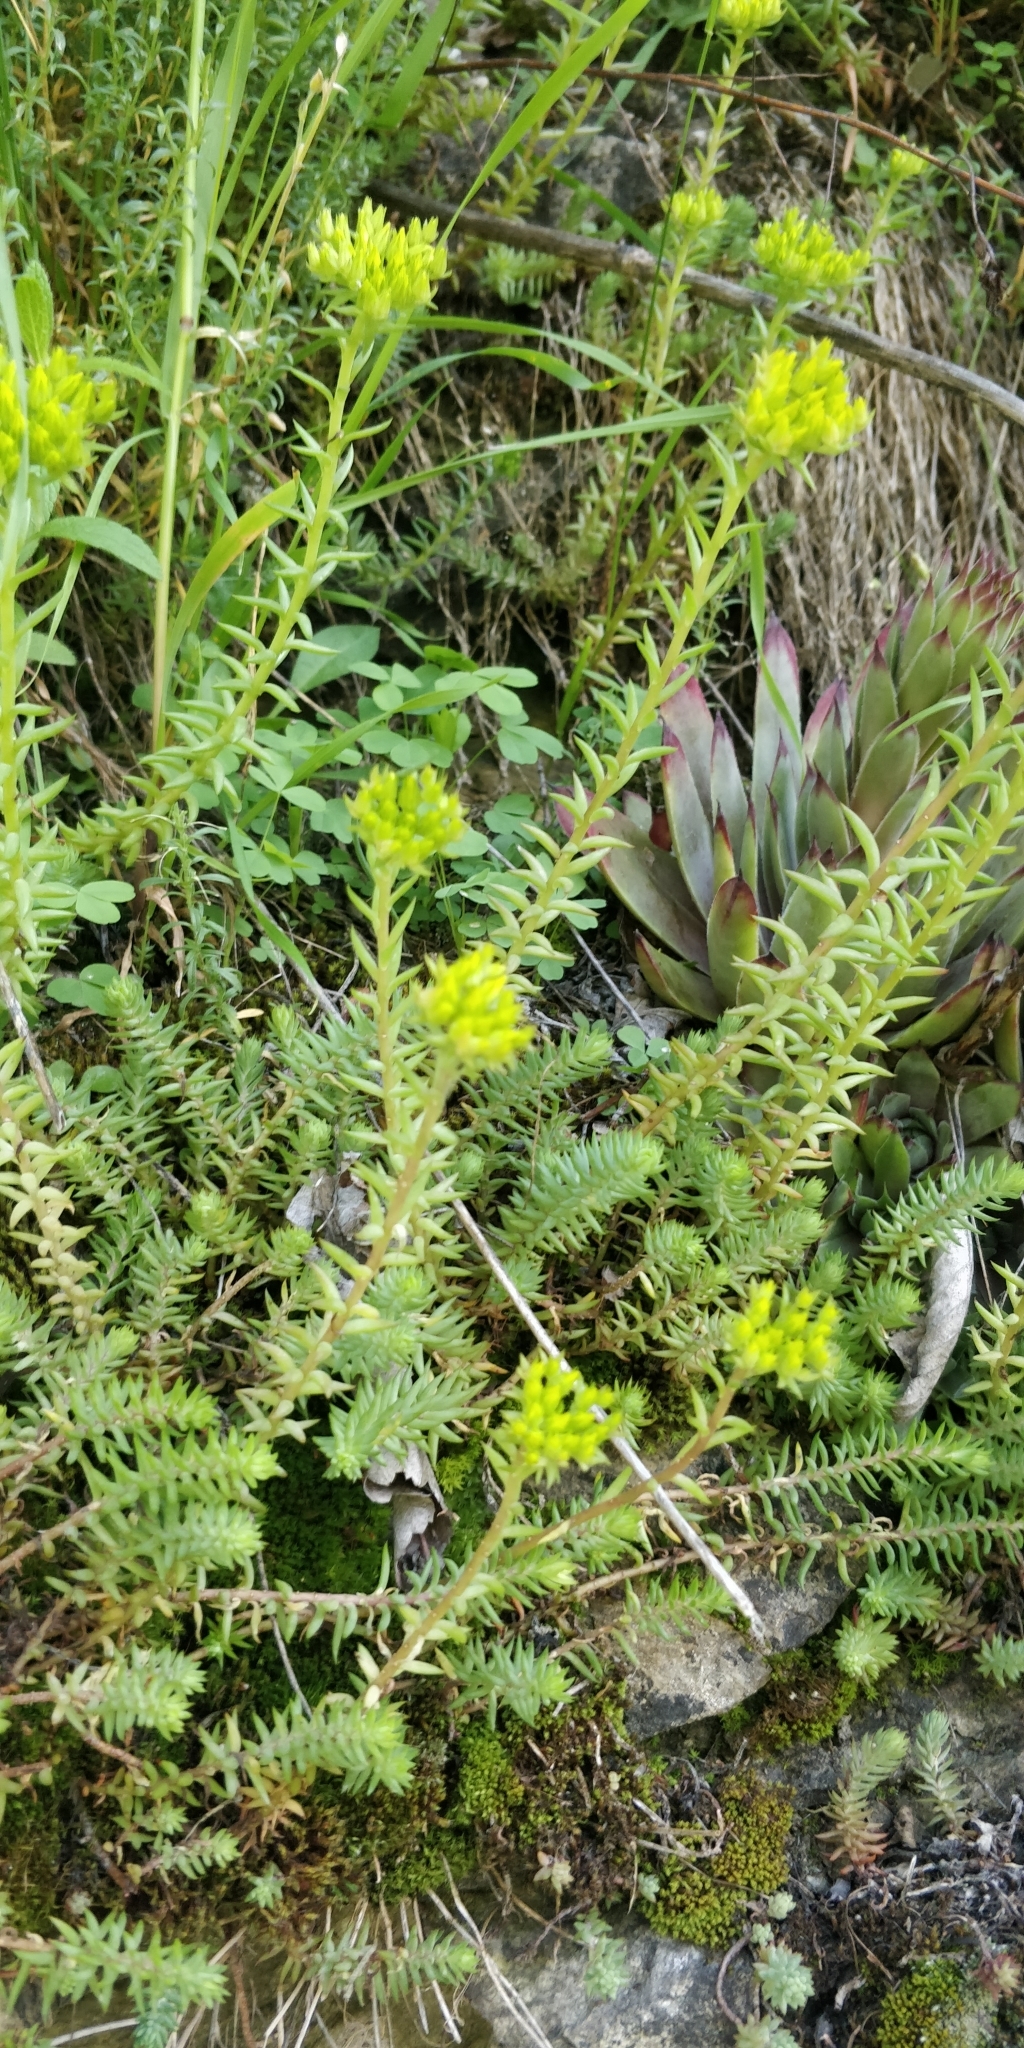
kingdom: Plantae
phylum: Tracheophyta
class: Magnoliopsida
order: Saxifragales
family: Crassulaceae
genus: Petrosedum
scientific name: Petrosedum montanum
